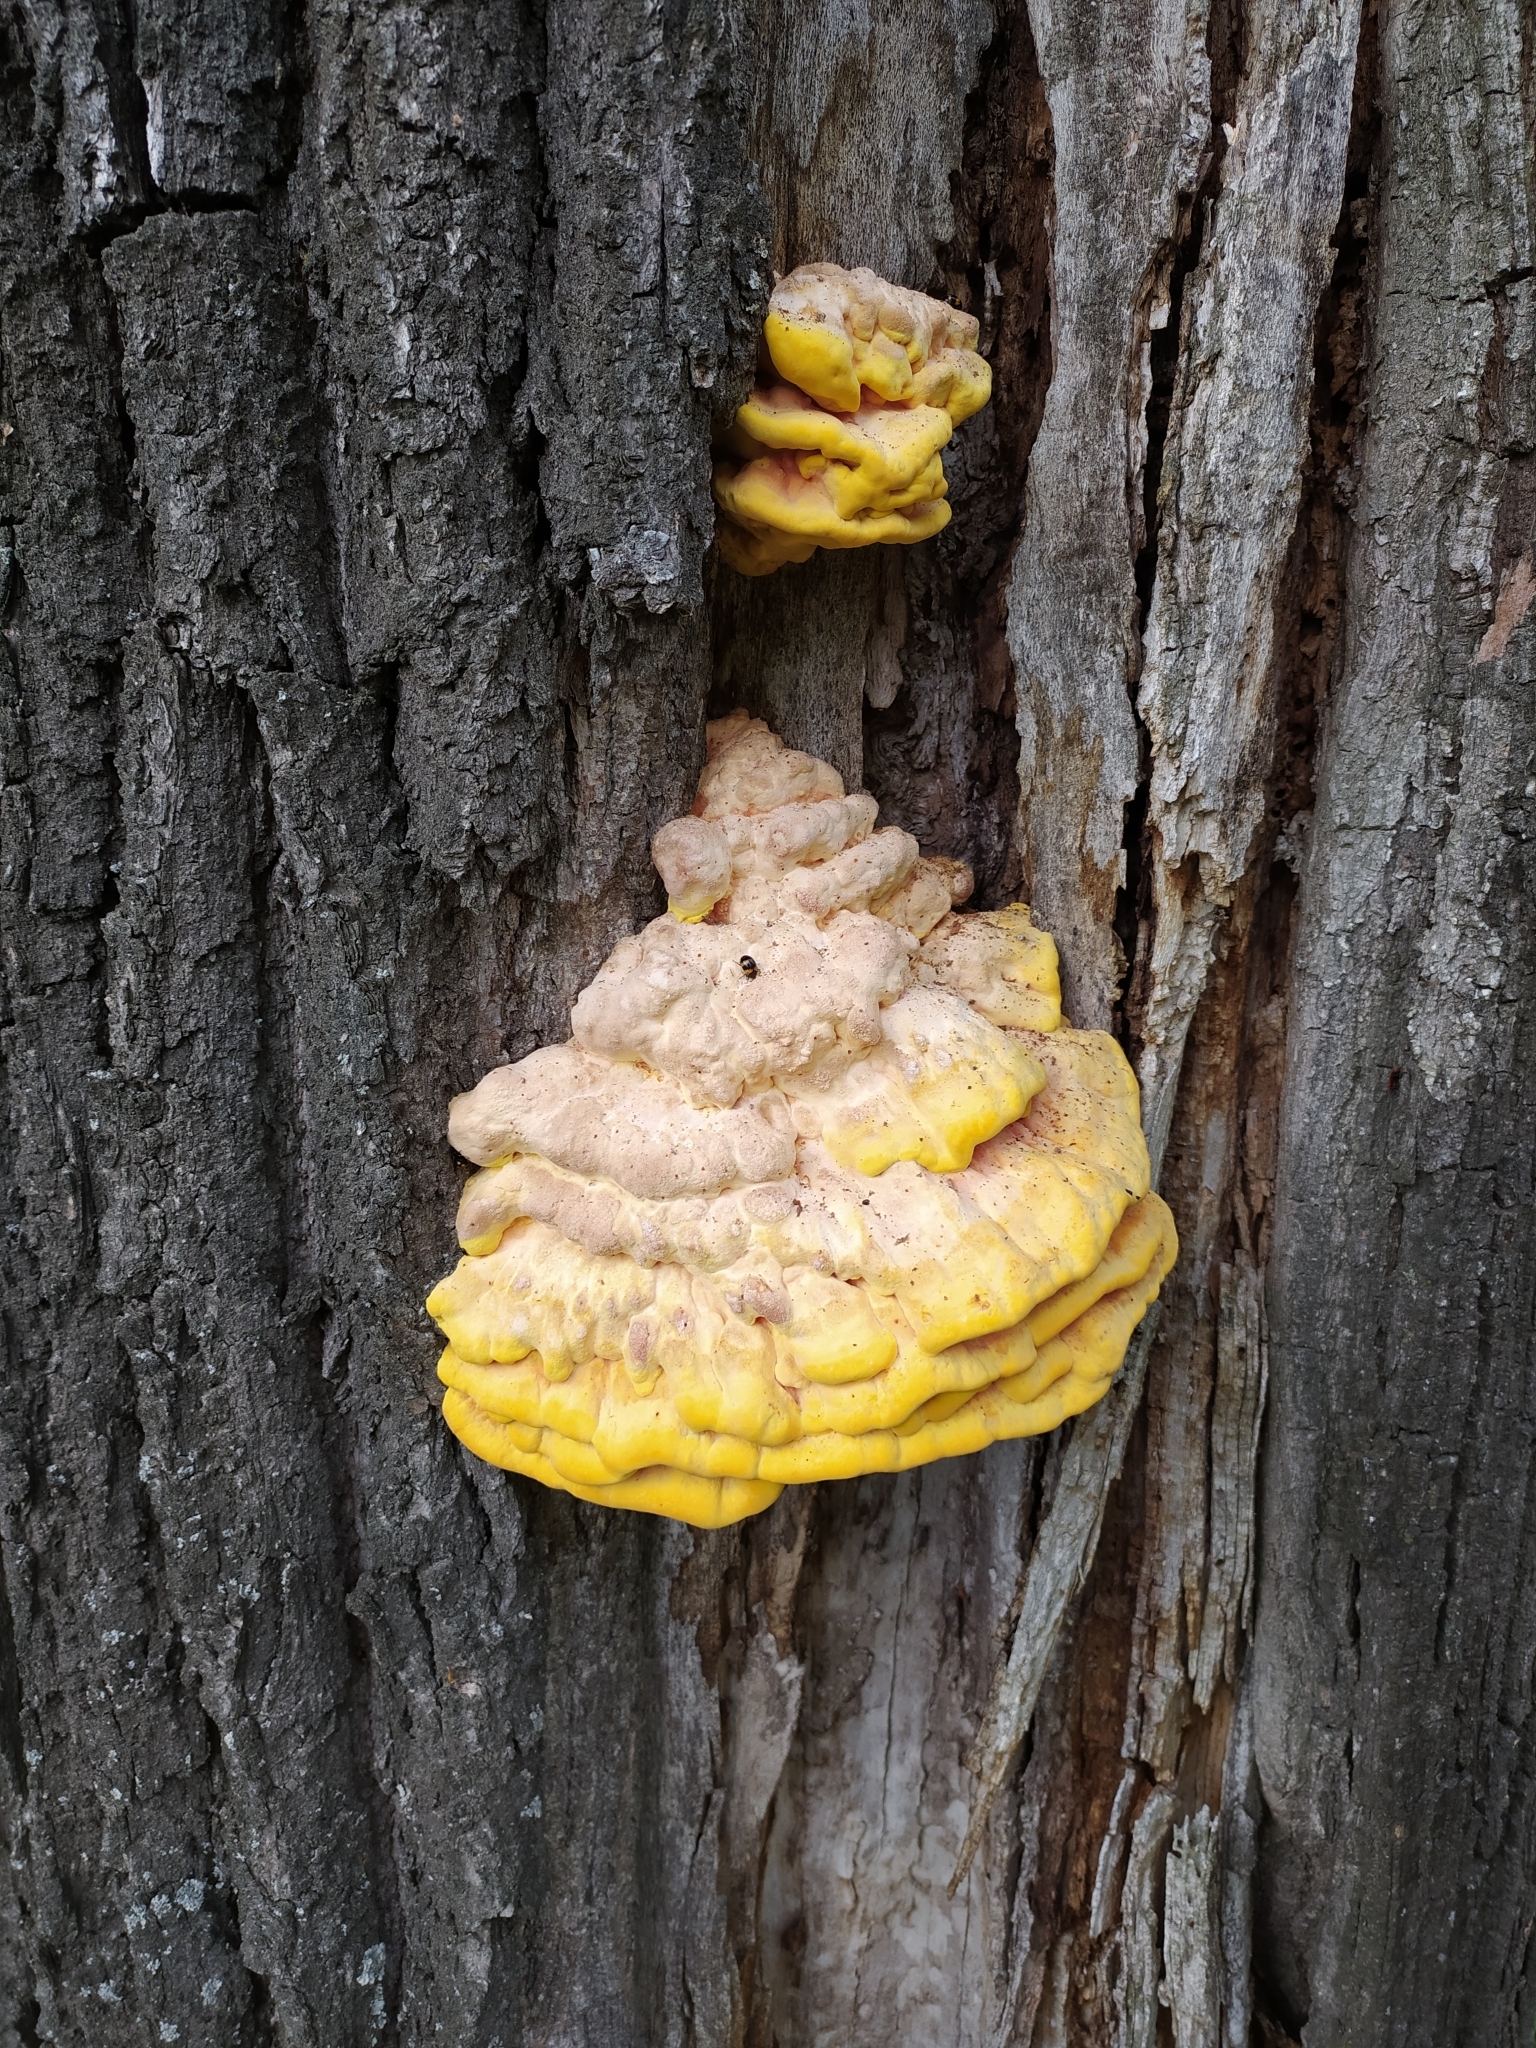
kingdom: Fungi
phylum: Basidiomycota
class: Agaricomycetes
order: Polyporales
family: Laetiporaceae
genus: Laetiporus
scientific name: Laetiporus sulphureus
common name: Chicken of the woods
